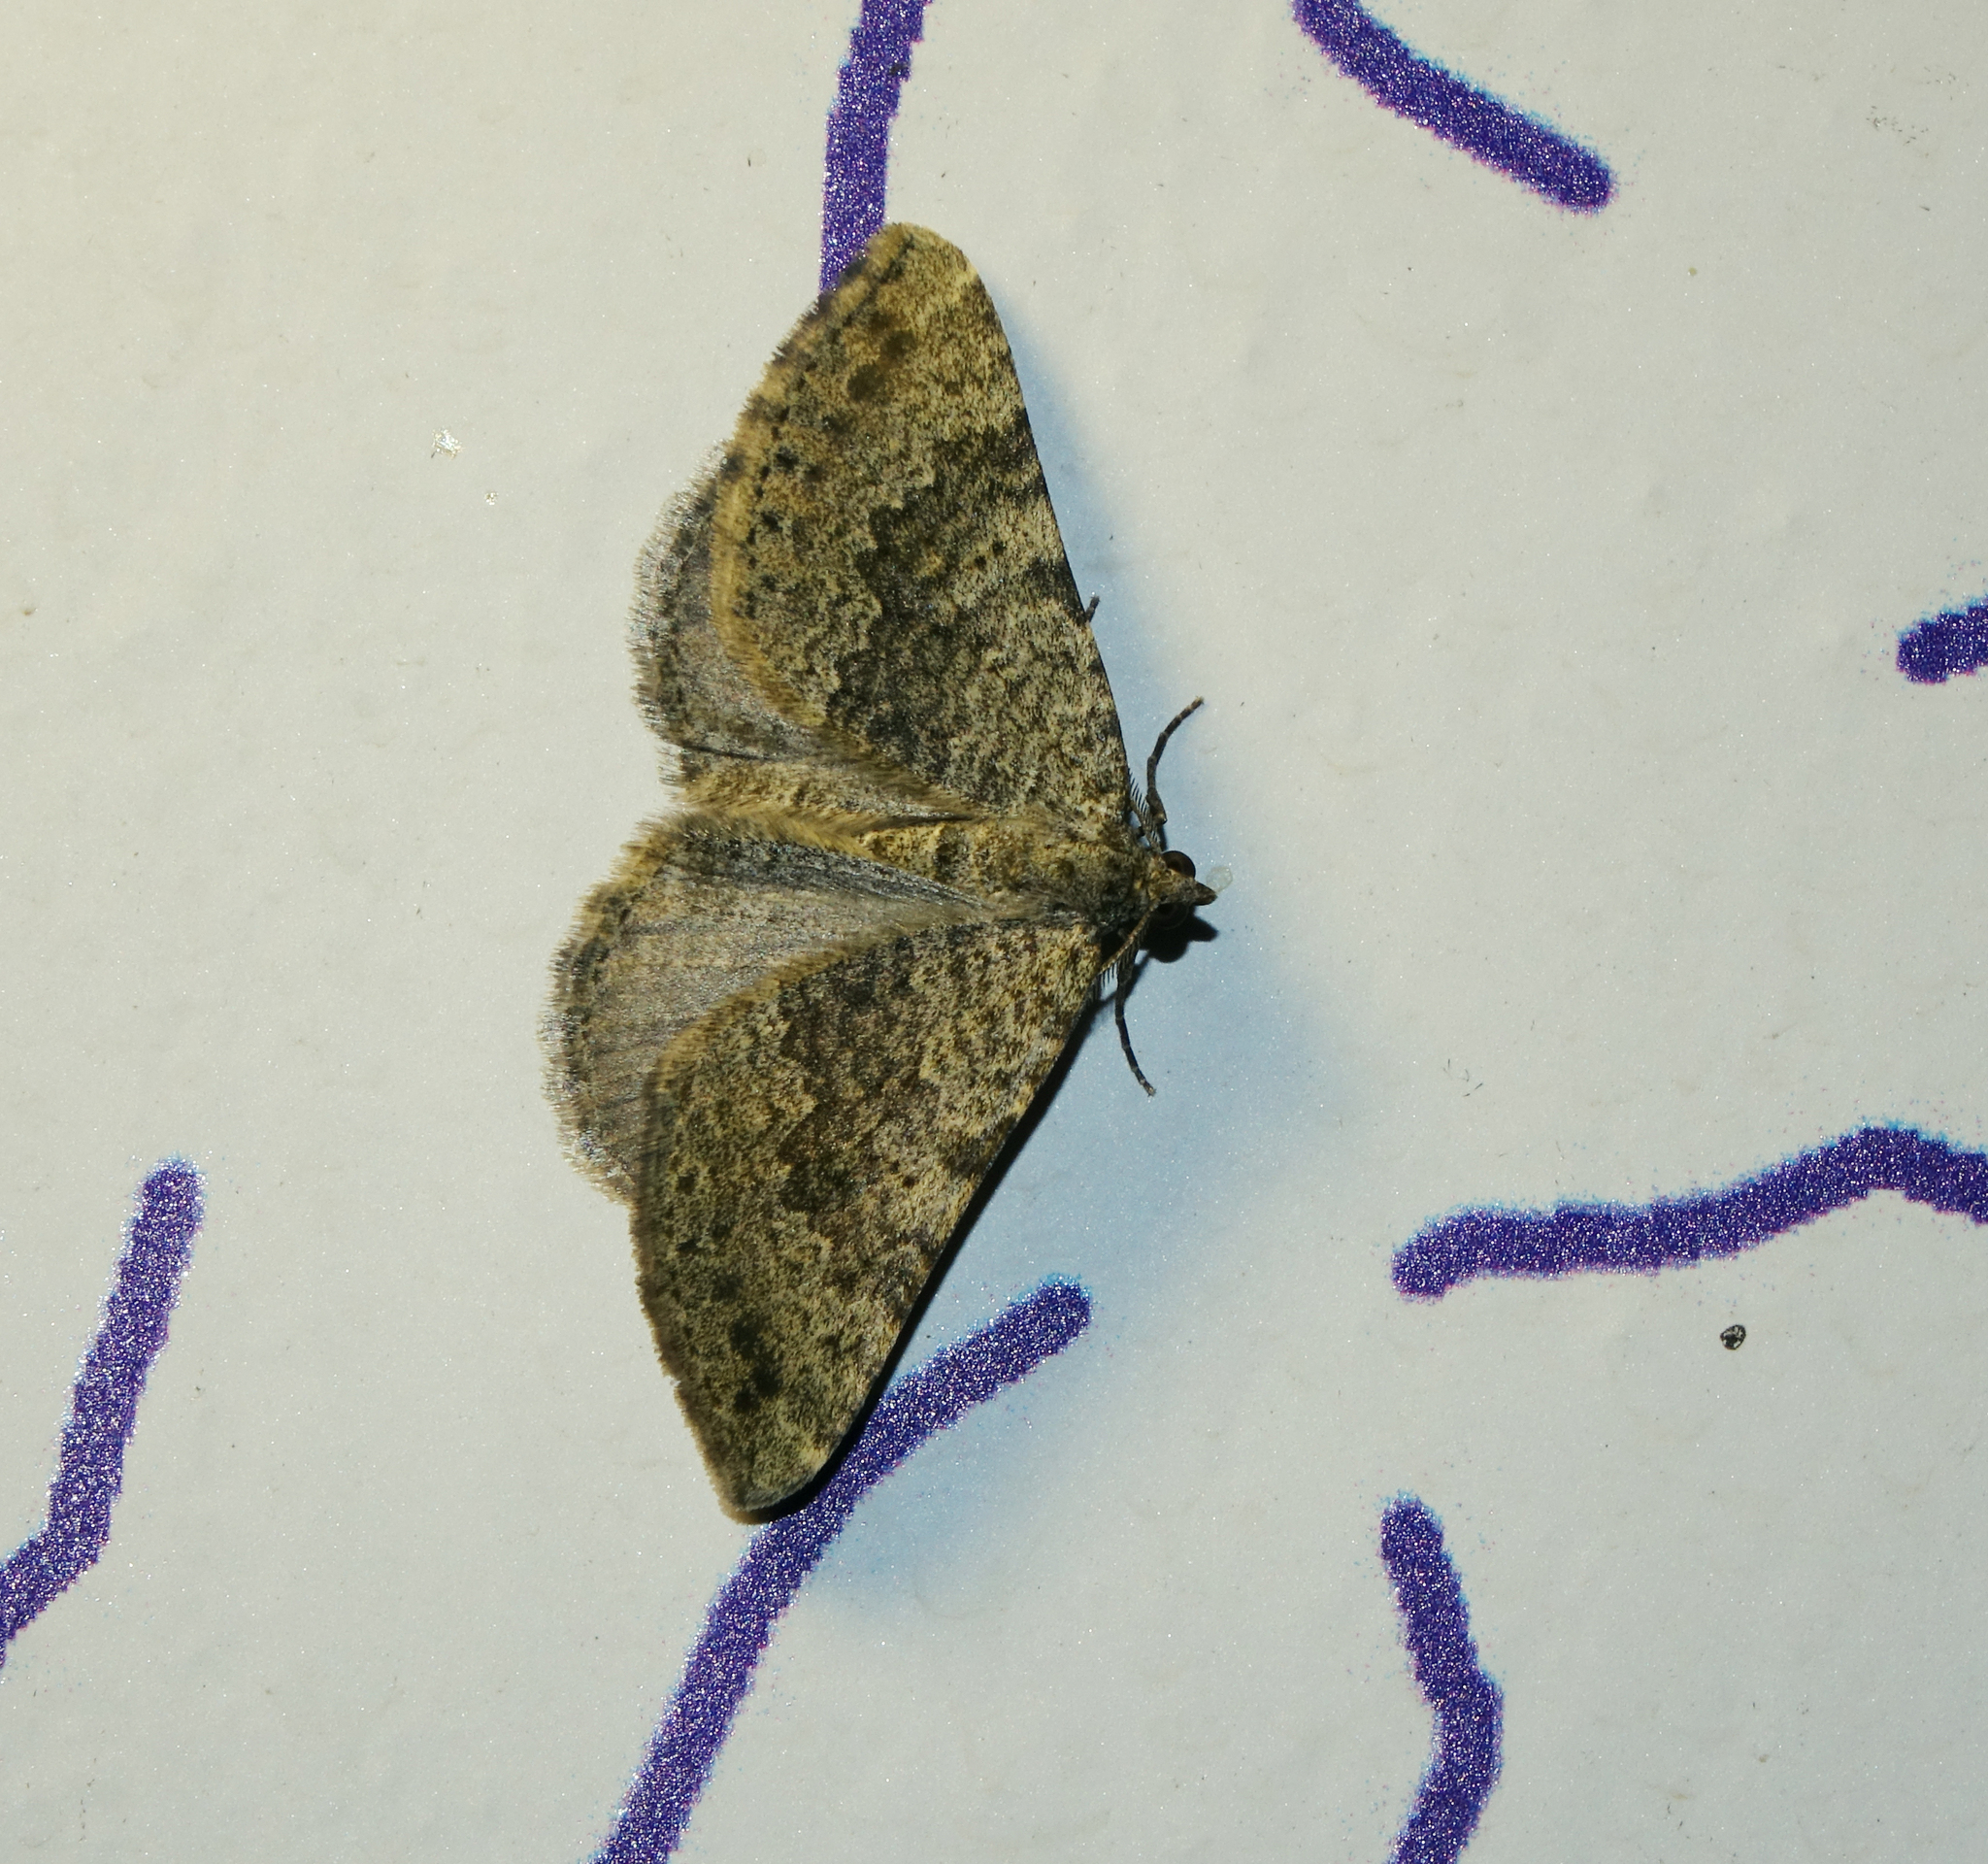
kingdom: Animalia
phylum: Arthropoda
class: Insecta
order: Lepidoptera
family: Geometridae
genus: Scotopteryx
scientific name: Scotopteryx
